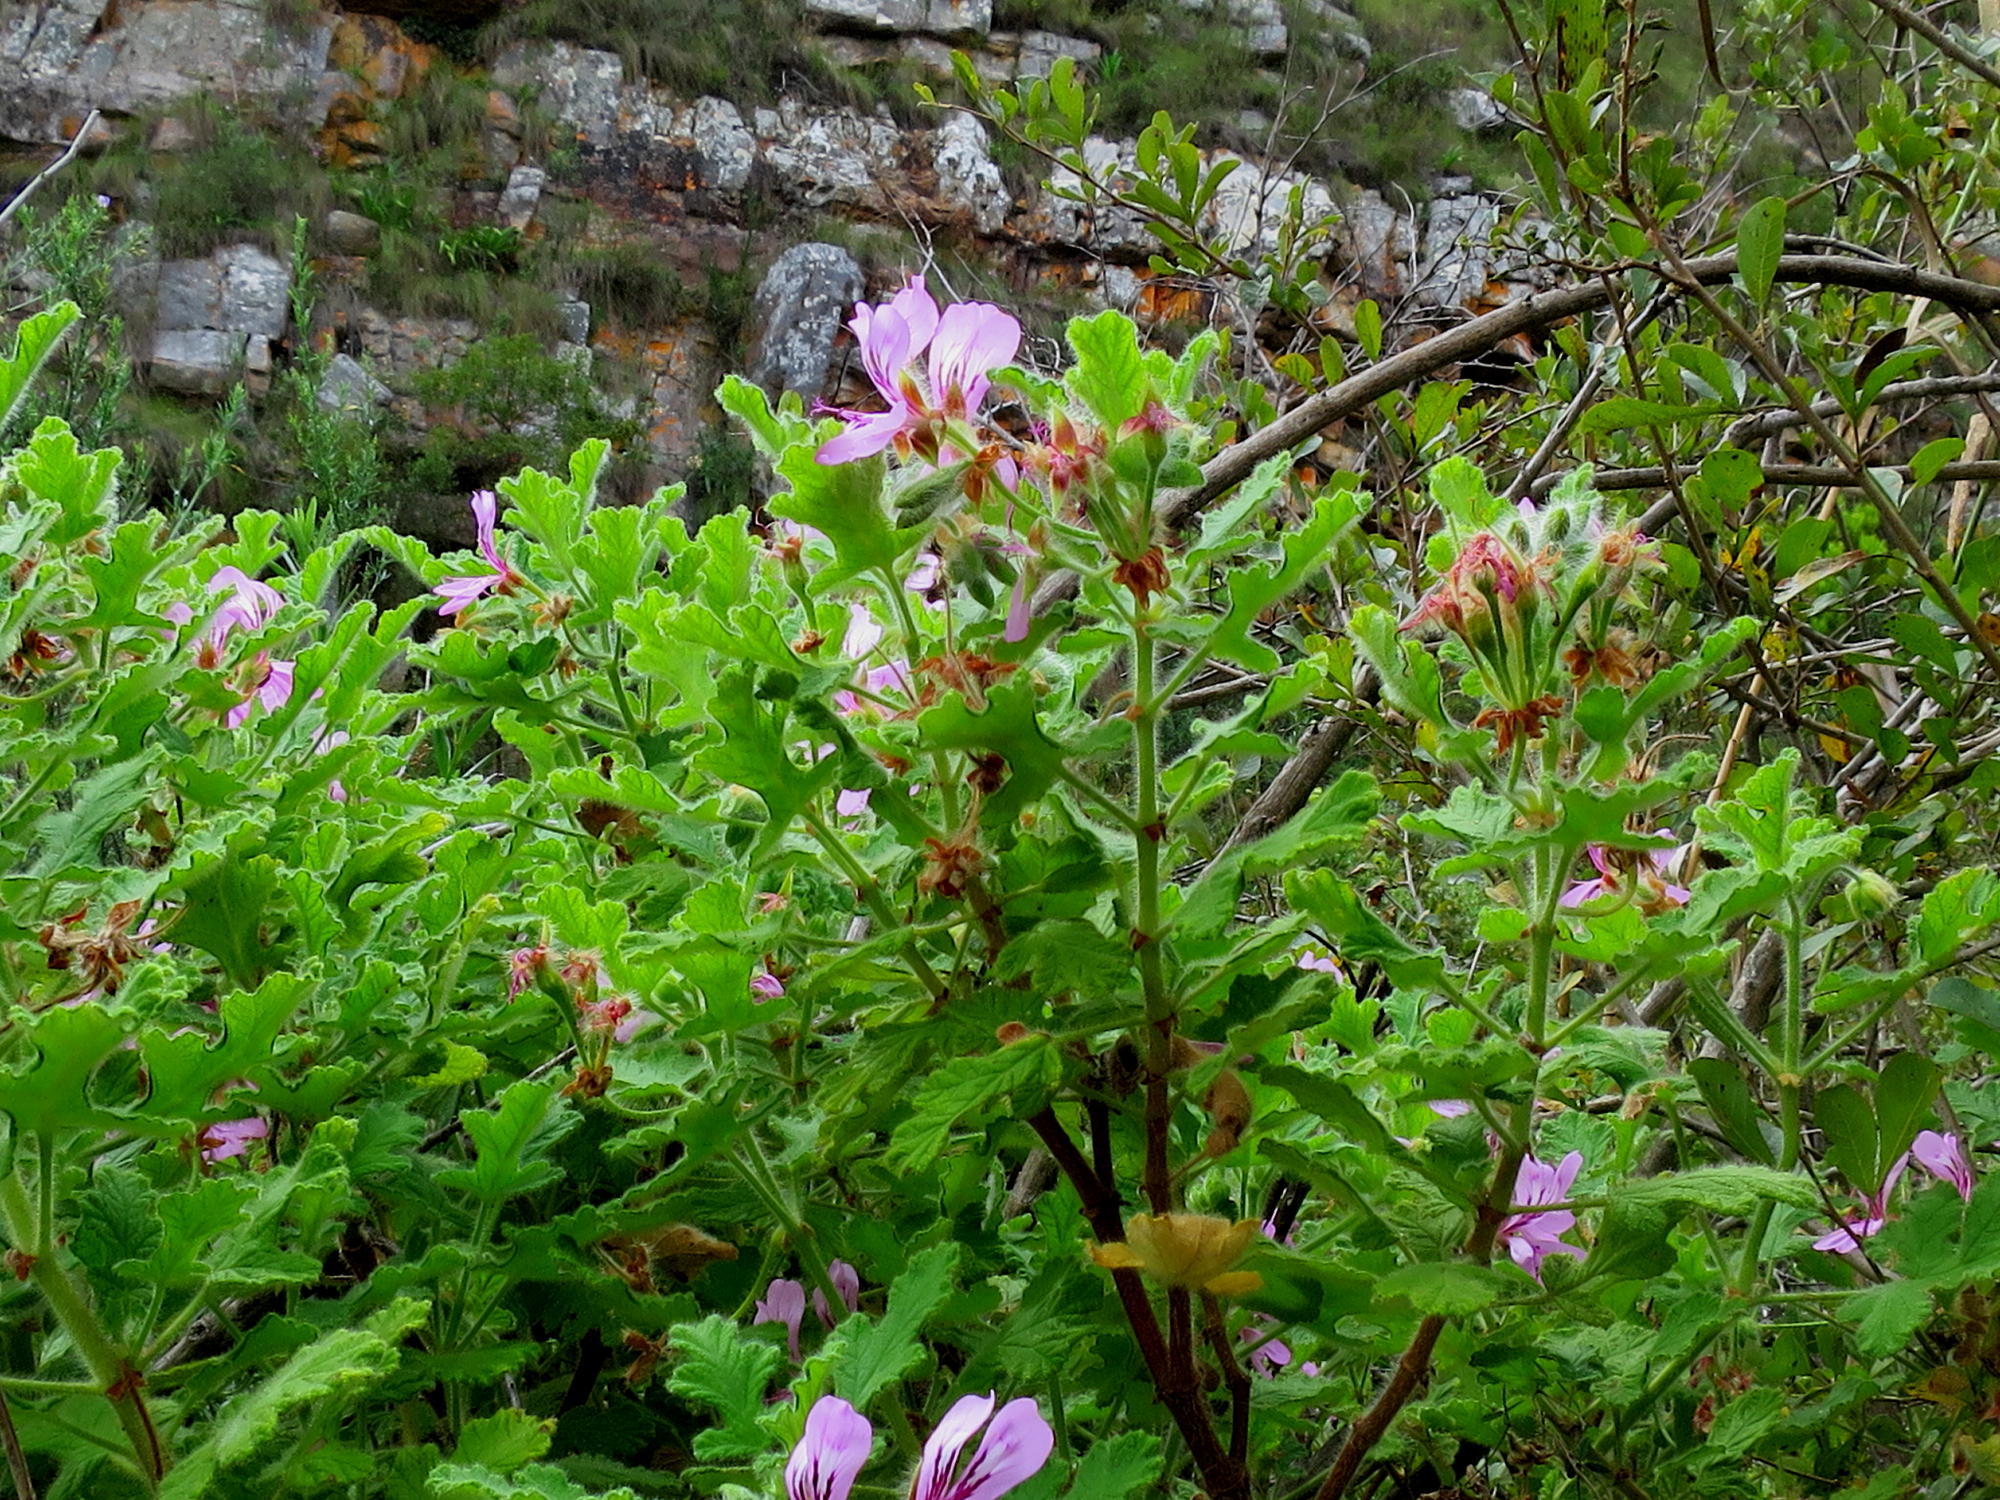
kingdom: Plantae
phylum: Tracheophyta
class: Magnoliopsida
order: Geraniales
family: Geraniaceae
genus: Pelargonium
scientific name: Pelargonium panduriforme
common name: Oakleaf garden geranium
